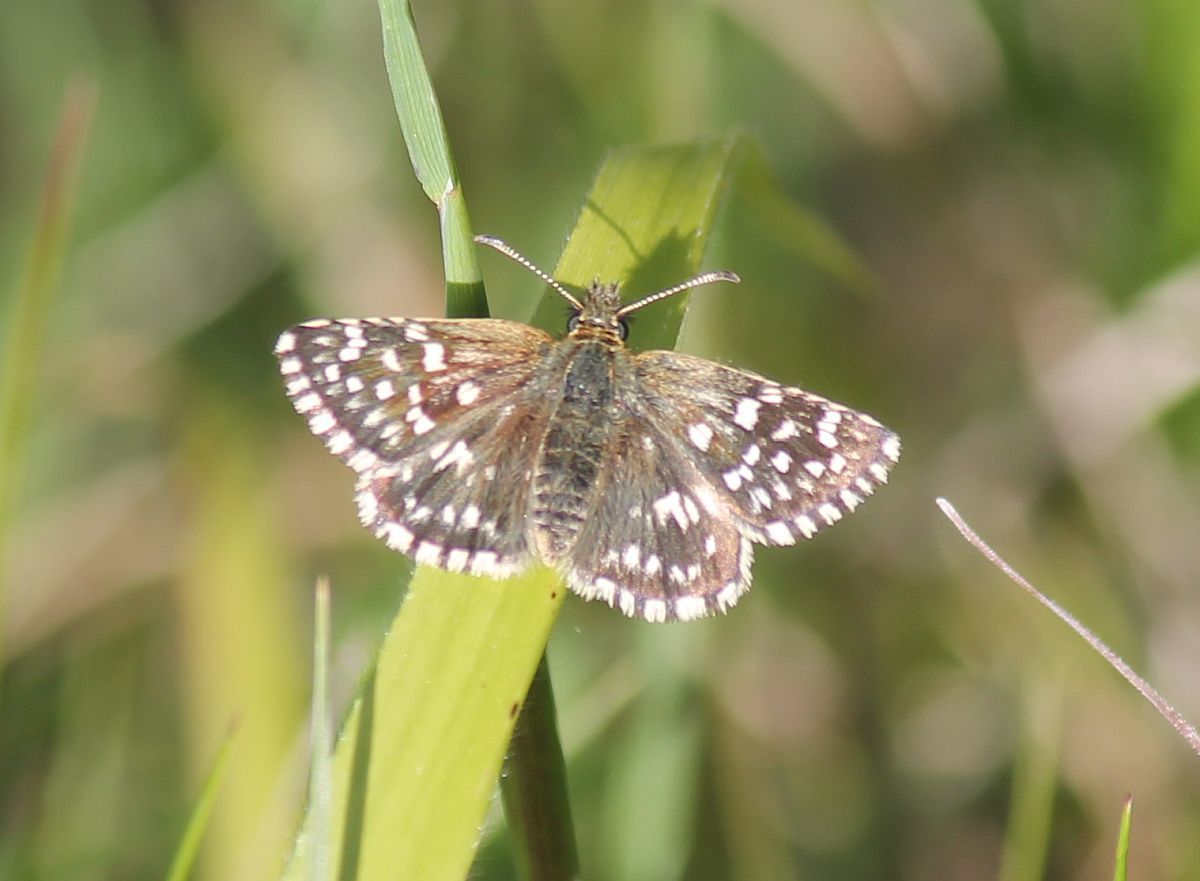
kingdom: Animalia
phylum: Arthropoda
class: Insecta
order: Lepidoptera
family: Hesperiidae
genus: Pyrgus
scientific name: Pyrgus malvae
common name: Grizzled skipper
